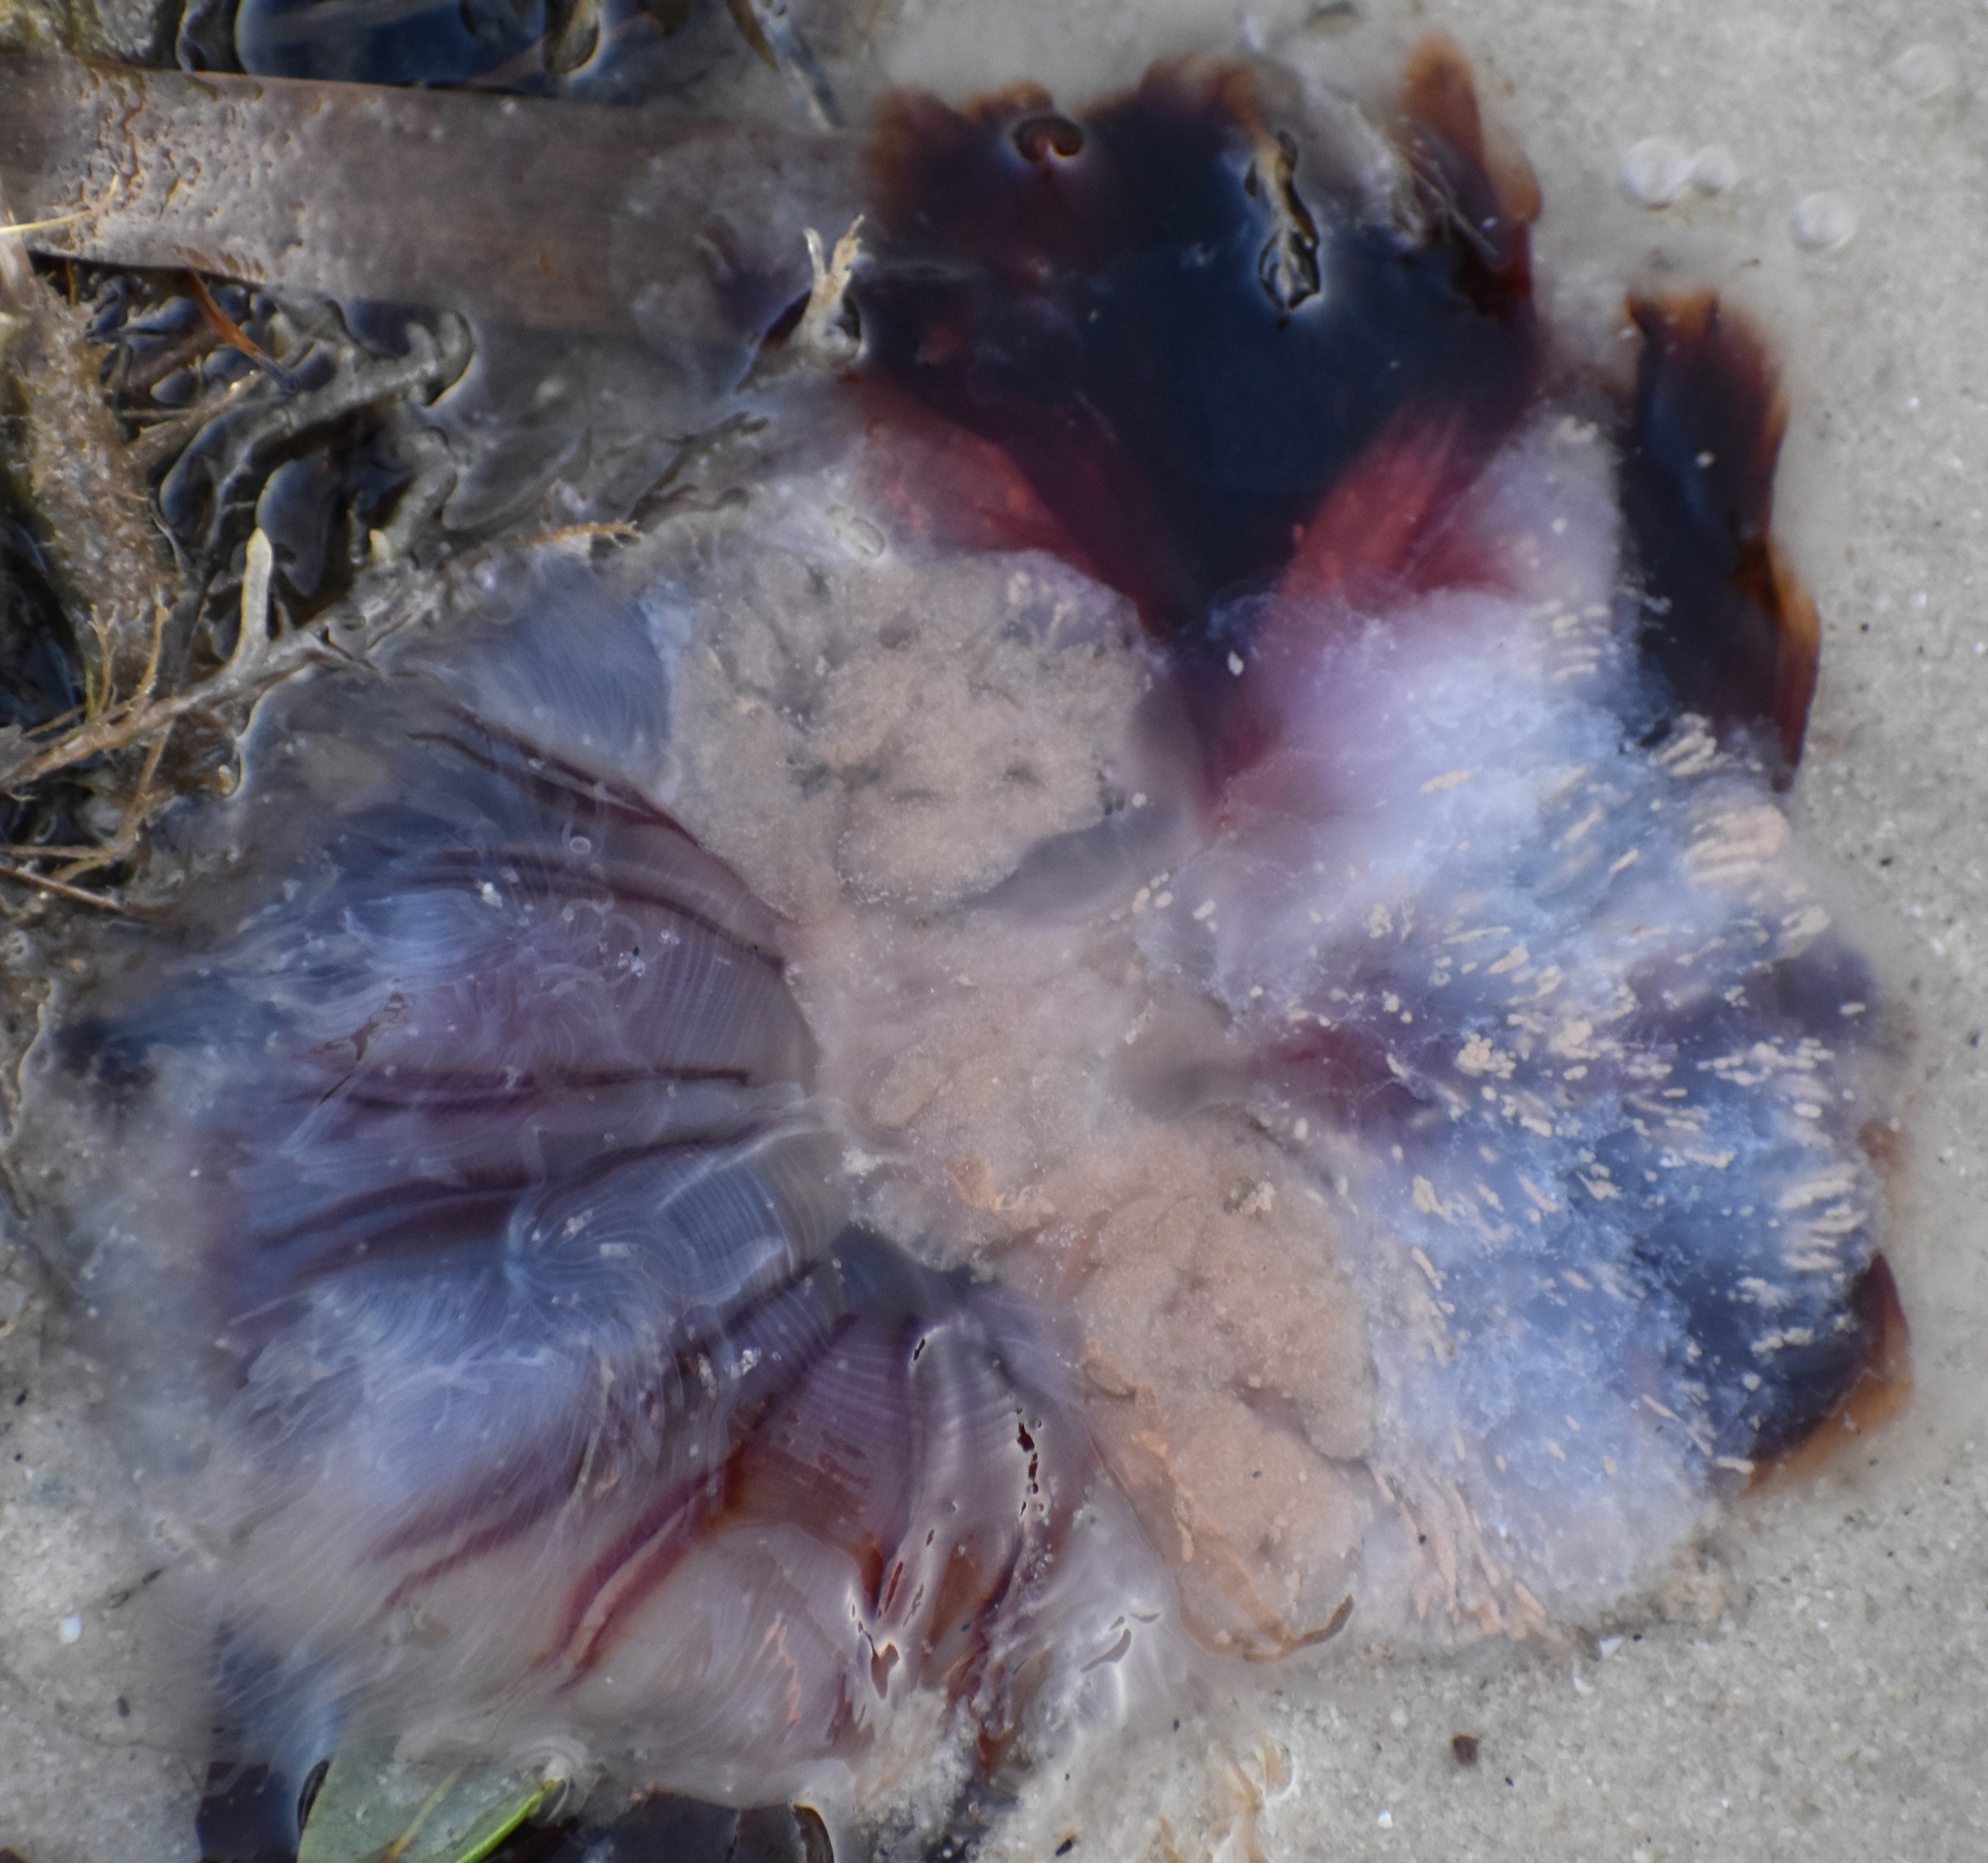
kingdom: Animalia
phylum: Cnidaria
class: Scyphozoa
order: Semaeostomeae
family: Cyaneidae
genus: Cyanea
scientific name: Cyanea versicolor
